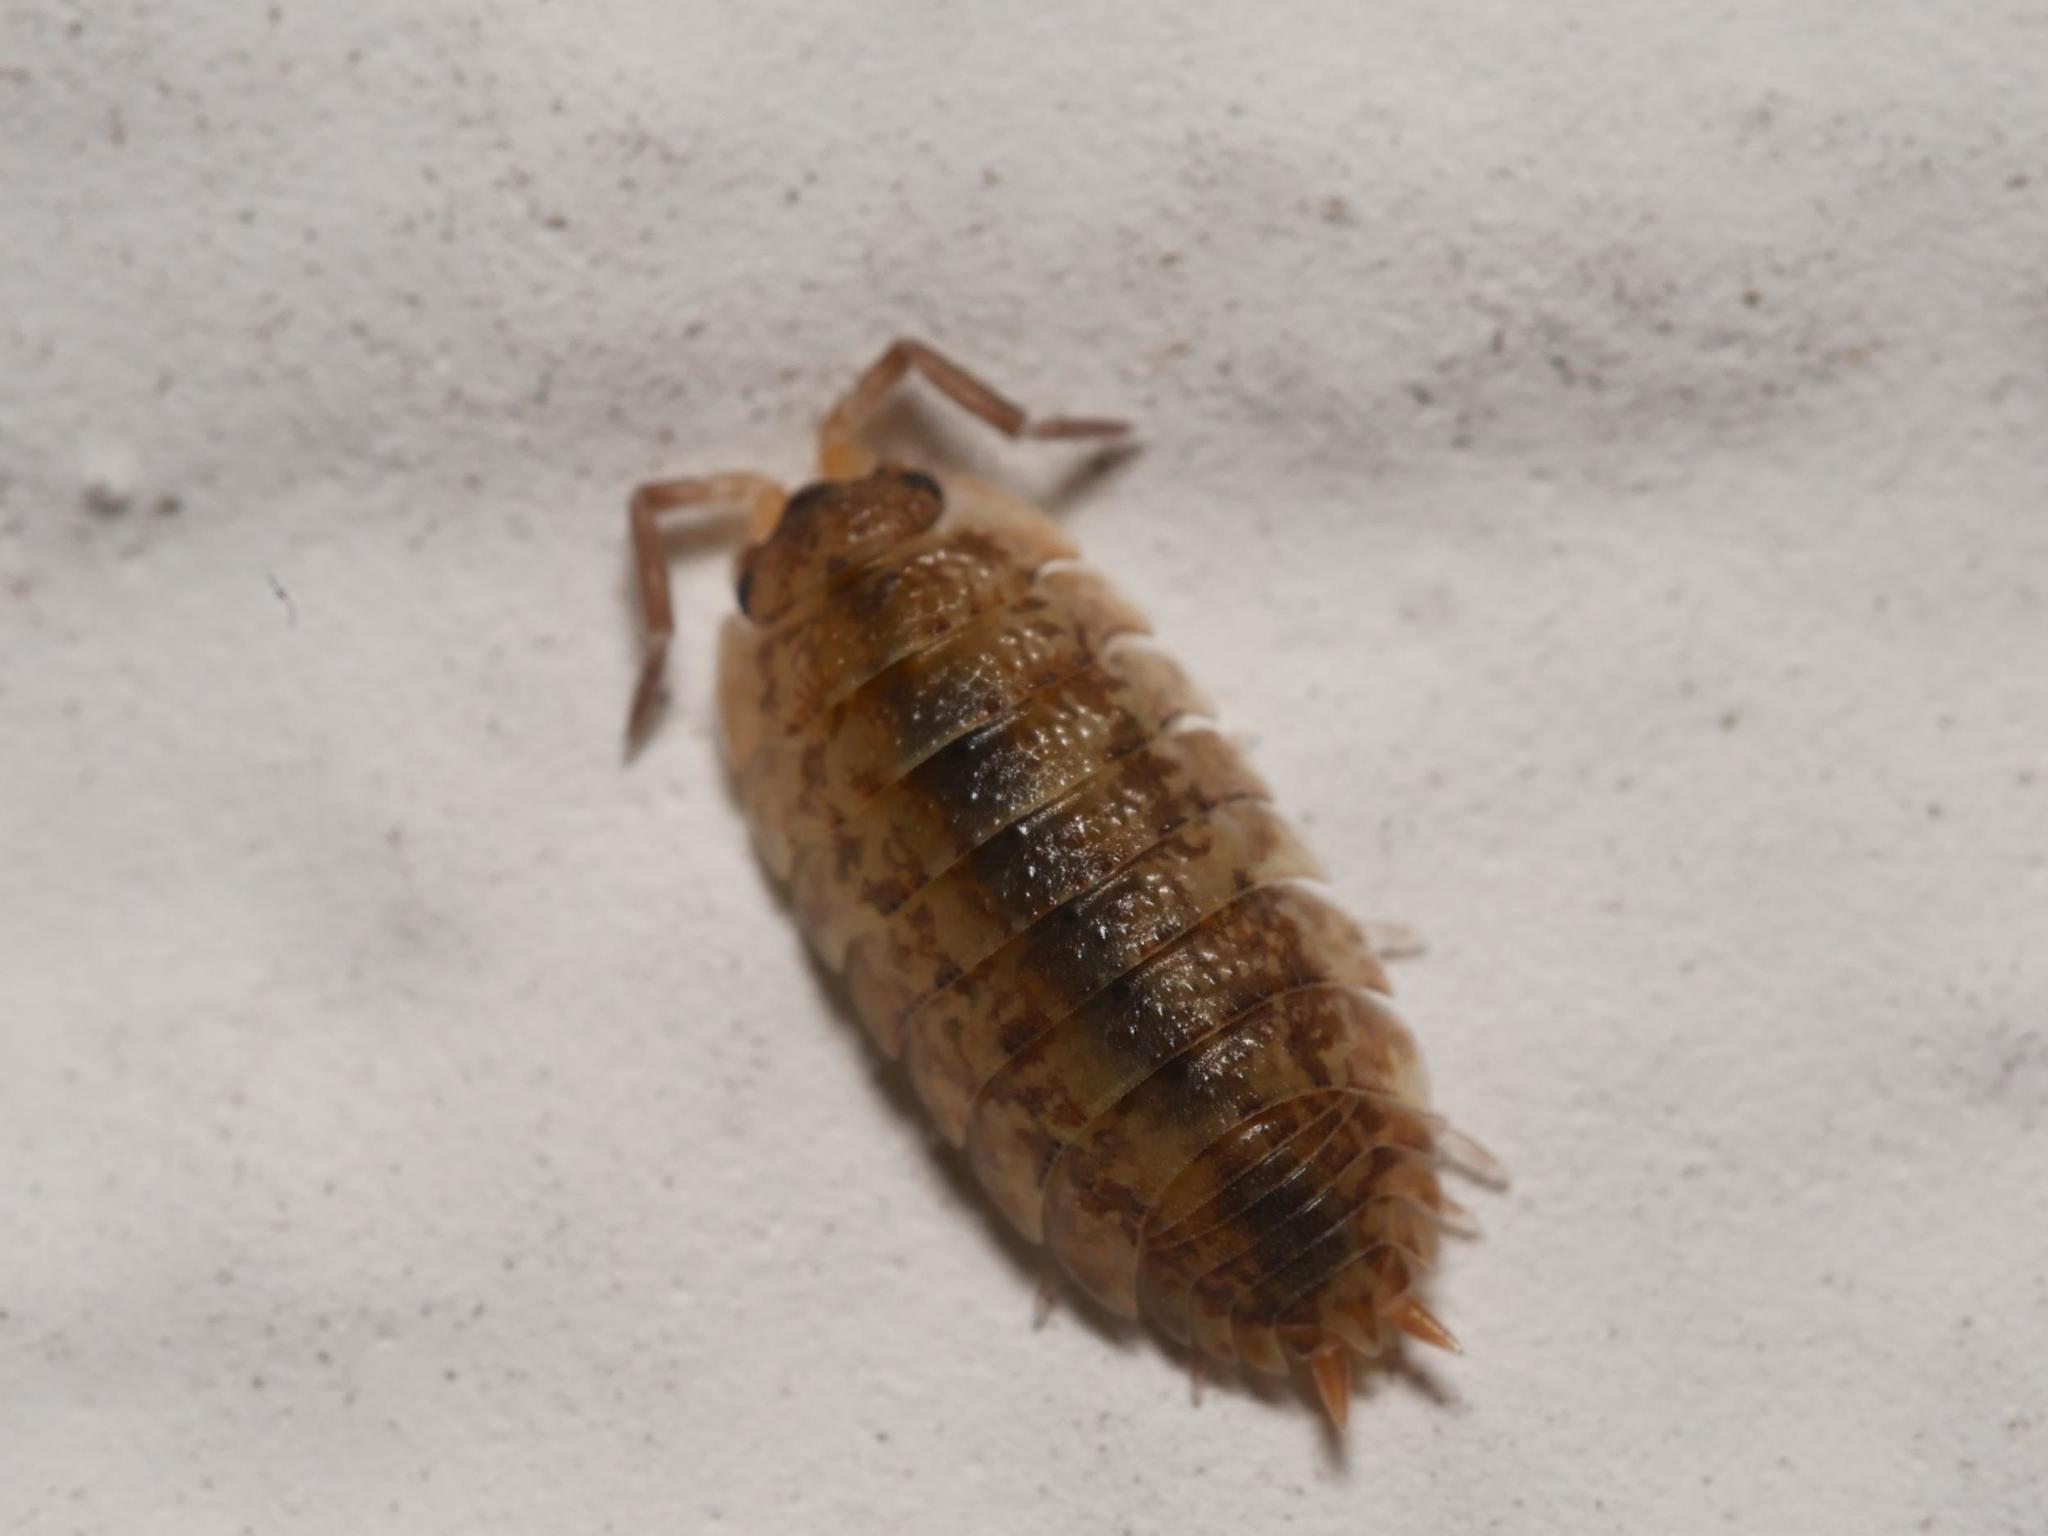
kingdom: Animalia
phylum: Arthropoda
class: Malacostraca
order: Isopoda
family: Porcellionidae
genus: Porcellio
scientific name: Porcellio scaber
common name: Common rough woodlouse
